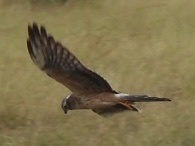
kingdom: Animalia
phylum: Chordata
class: Aves
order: Accipitriformes
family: Accipitridae
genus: Circus
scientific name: Circus macrourus
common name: Pallid harrier
